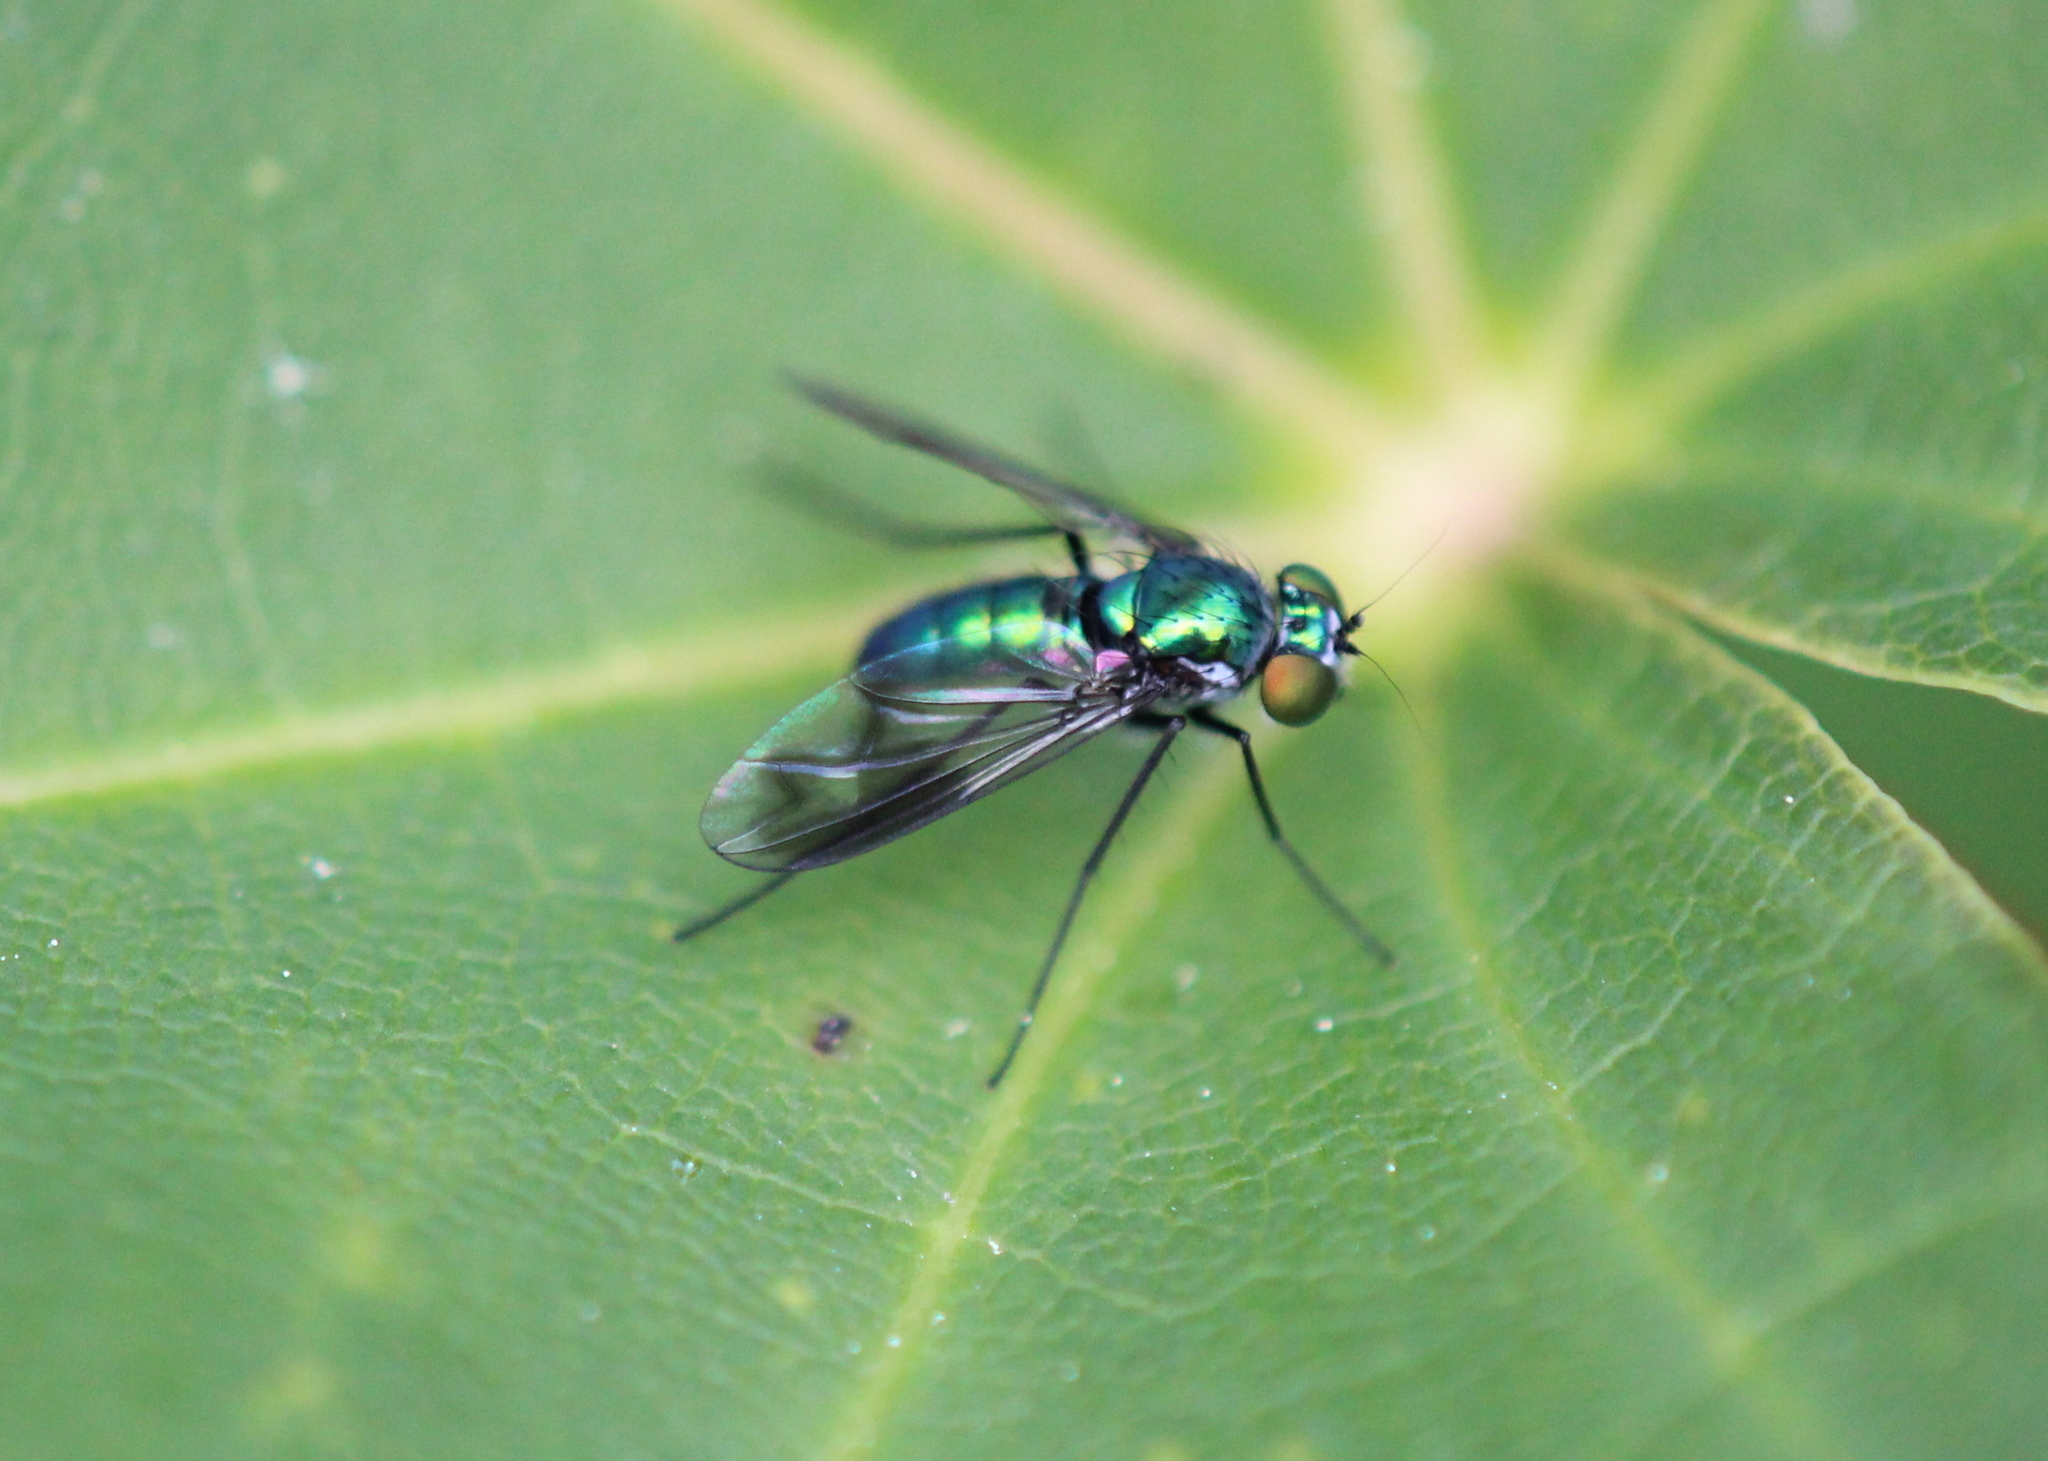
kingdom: Animalia
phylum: Arthropoda
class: Insecta
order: Diptera
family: Dolichopodidae
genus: Condylostylus
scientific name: Condylostylus patibulatus
